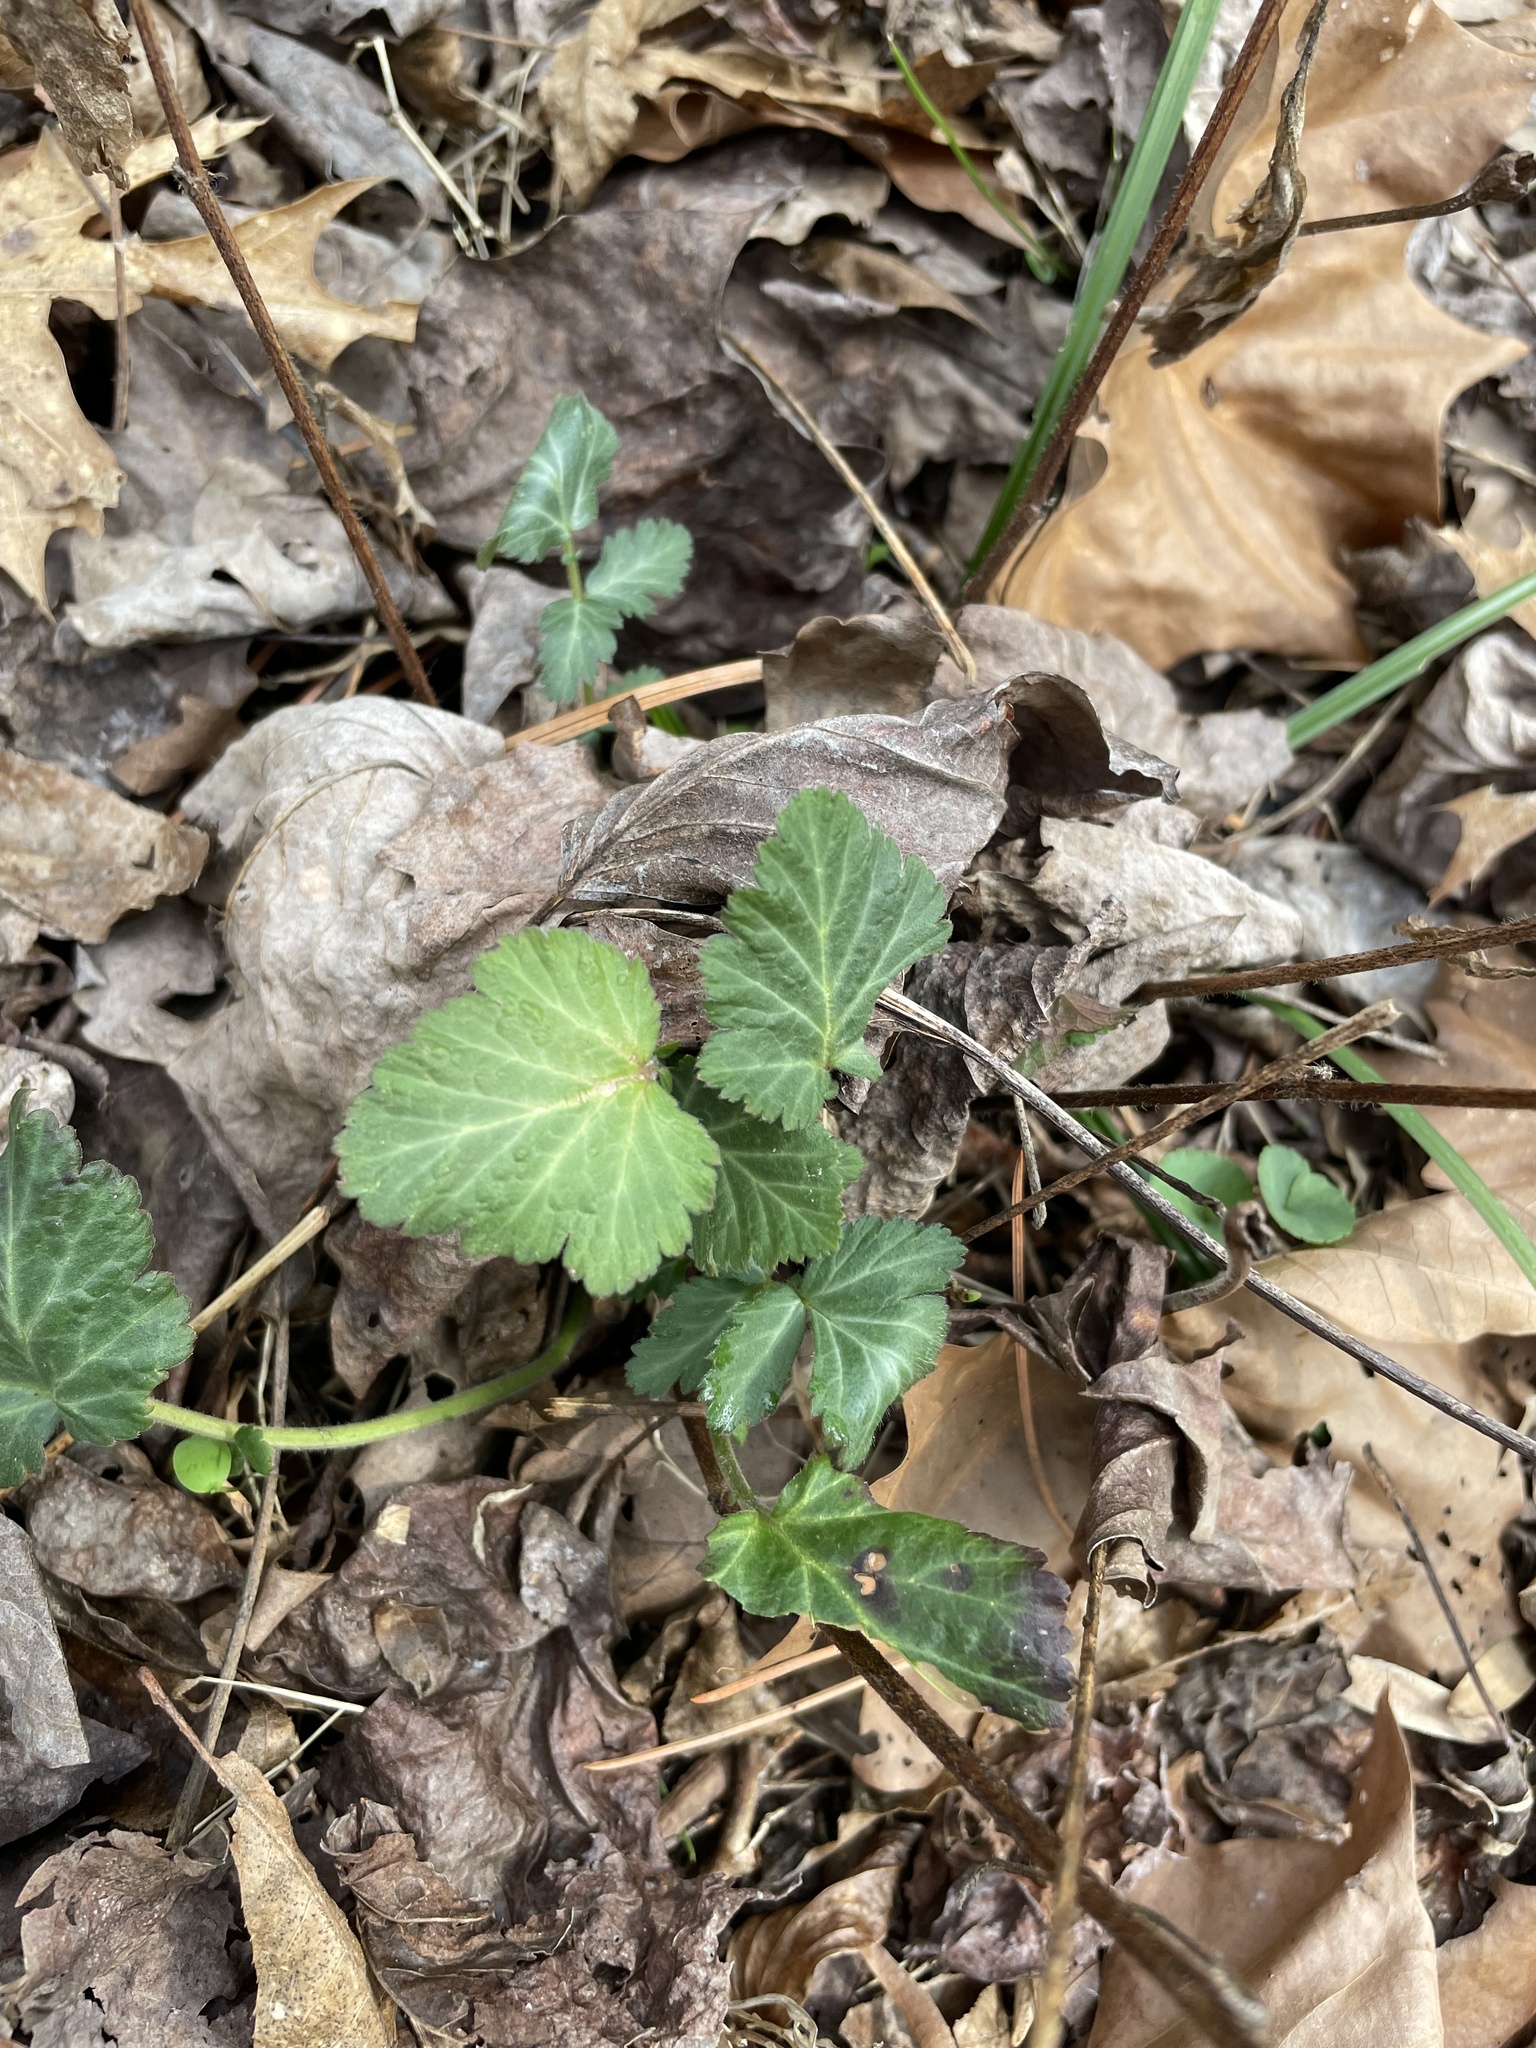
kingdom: Plantae
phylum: Tracheophyta
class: Magnoliopsida
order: Rosales
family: Rosaceae
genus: Geum
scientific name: Geum canadense
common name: White avens
